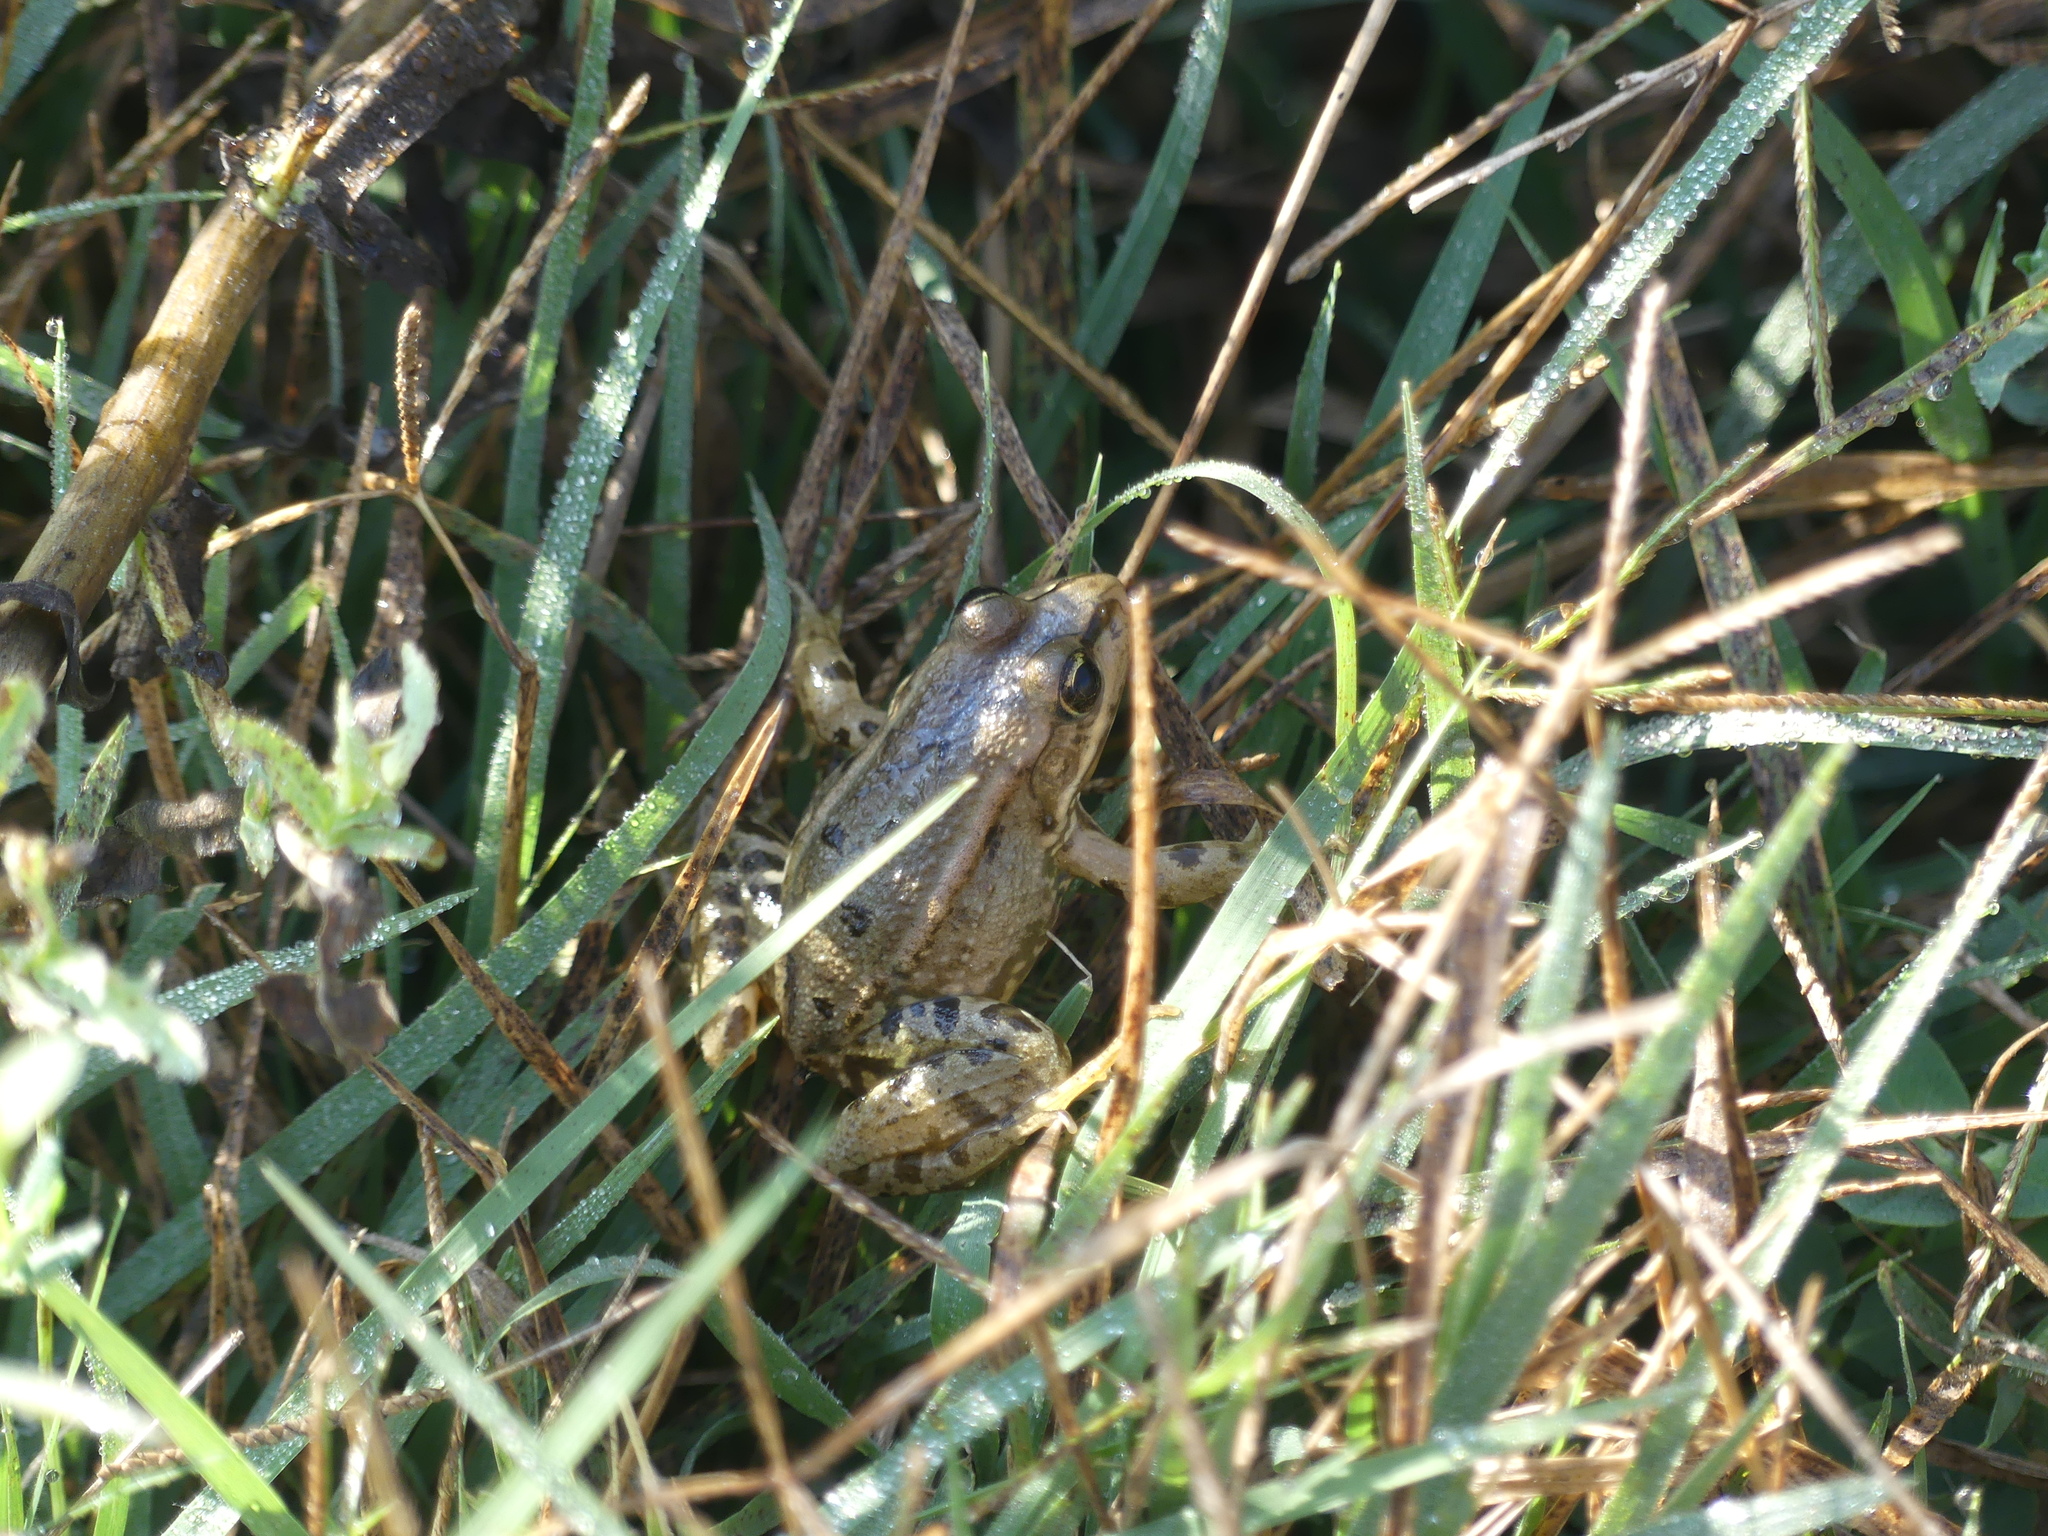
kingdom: Animalia
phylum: Chordata
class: Amphibia
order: Anura
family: Ranidae
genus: Pelophylax
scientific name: Pelophylax ridibundus
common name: Marsh frog
